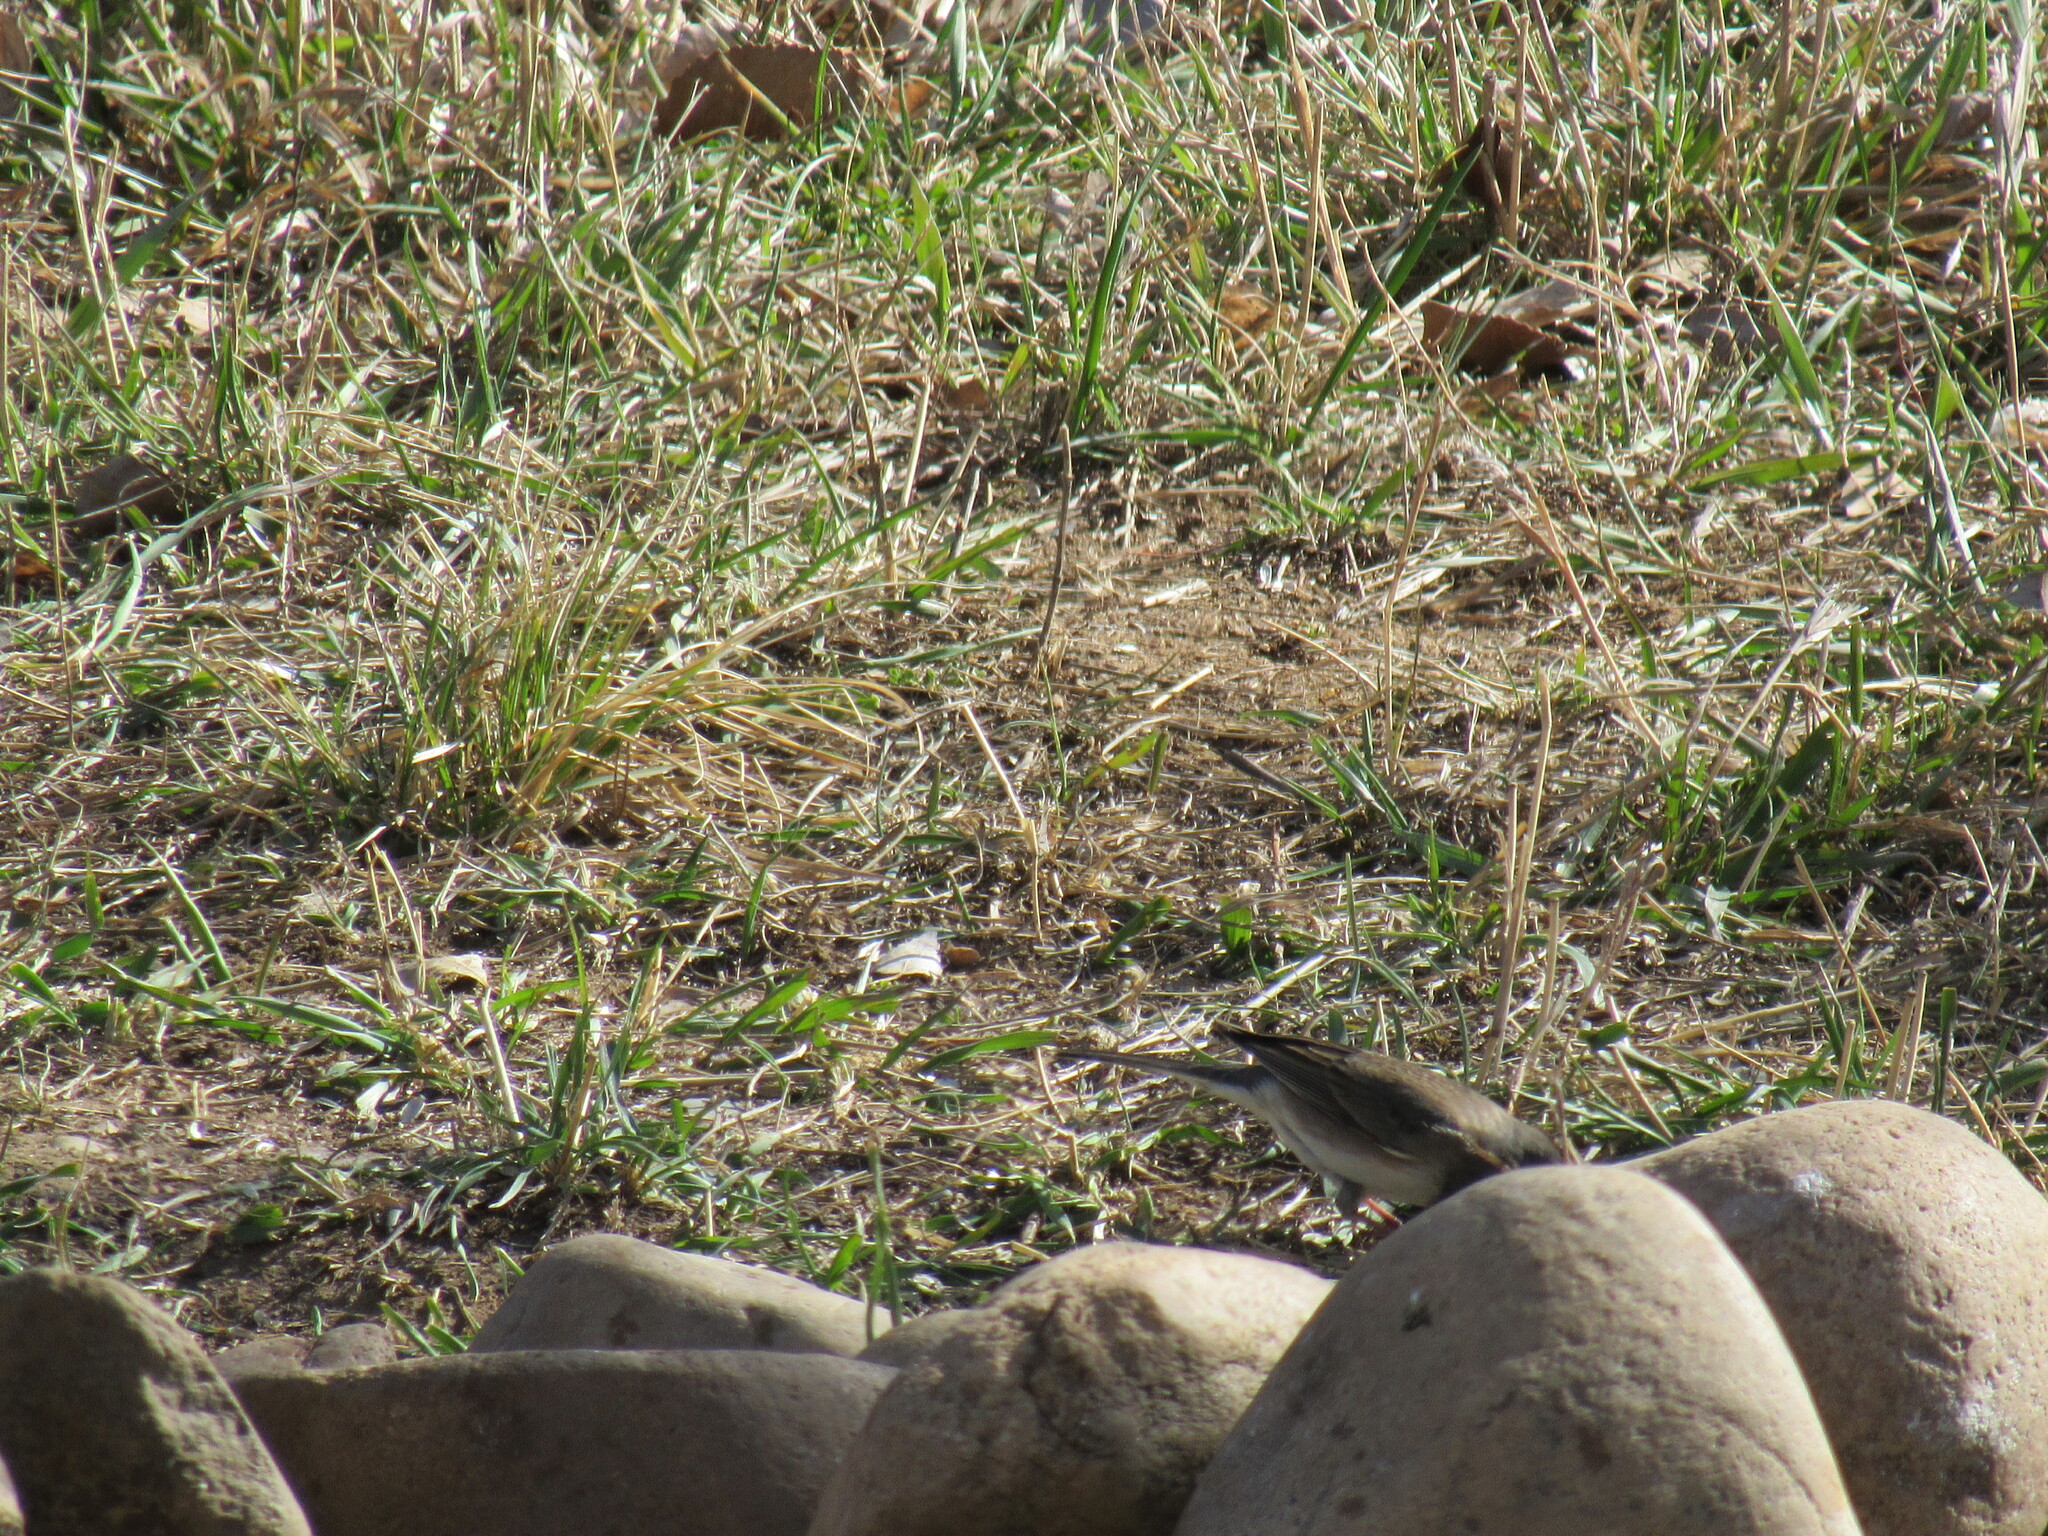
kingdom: Animalia
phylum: Chordata
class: Aves
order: Passeriformes
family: Passerellidae
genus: Junco
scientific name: Junco hyemalis
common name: Dark-eyed junco
